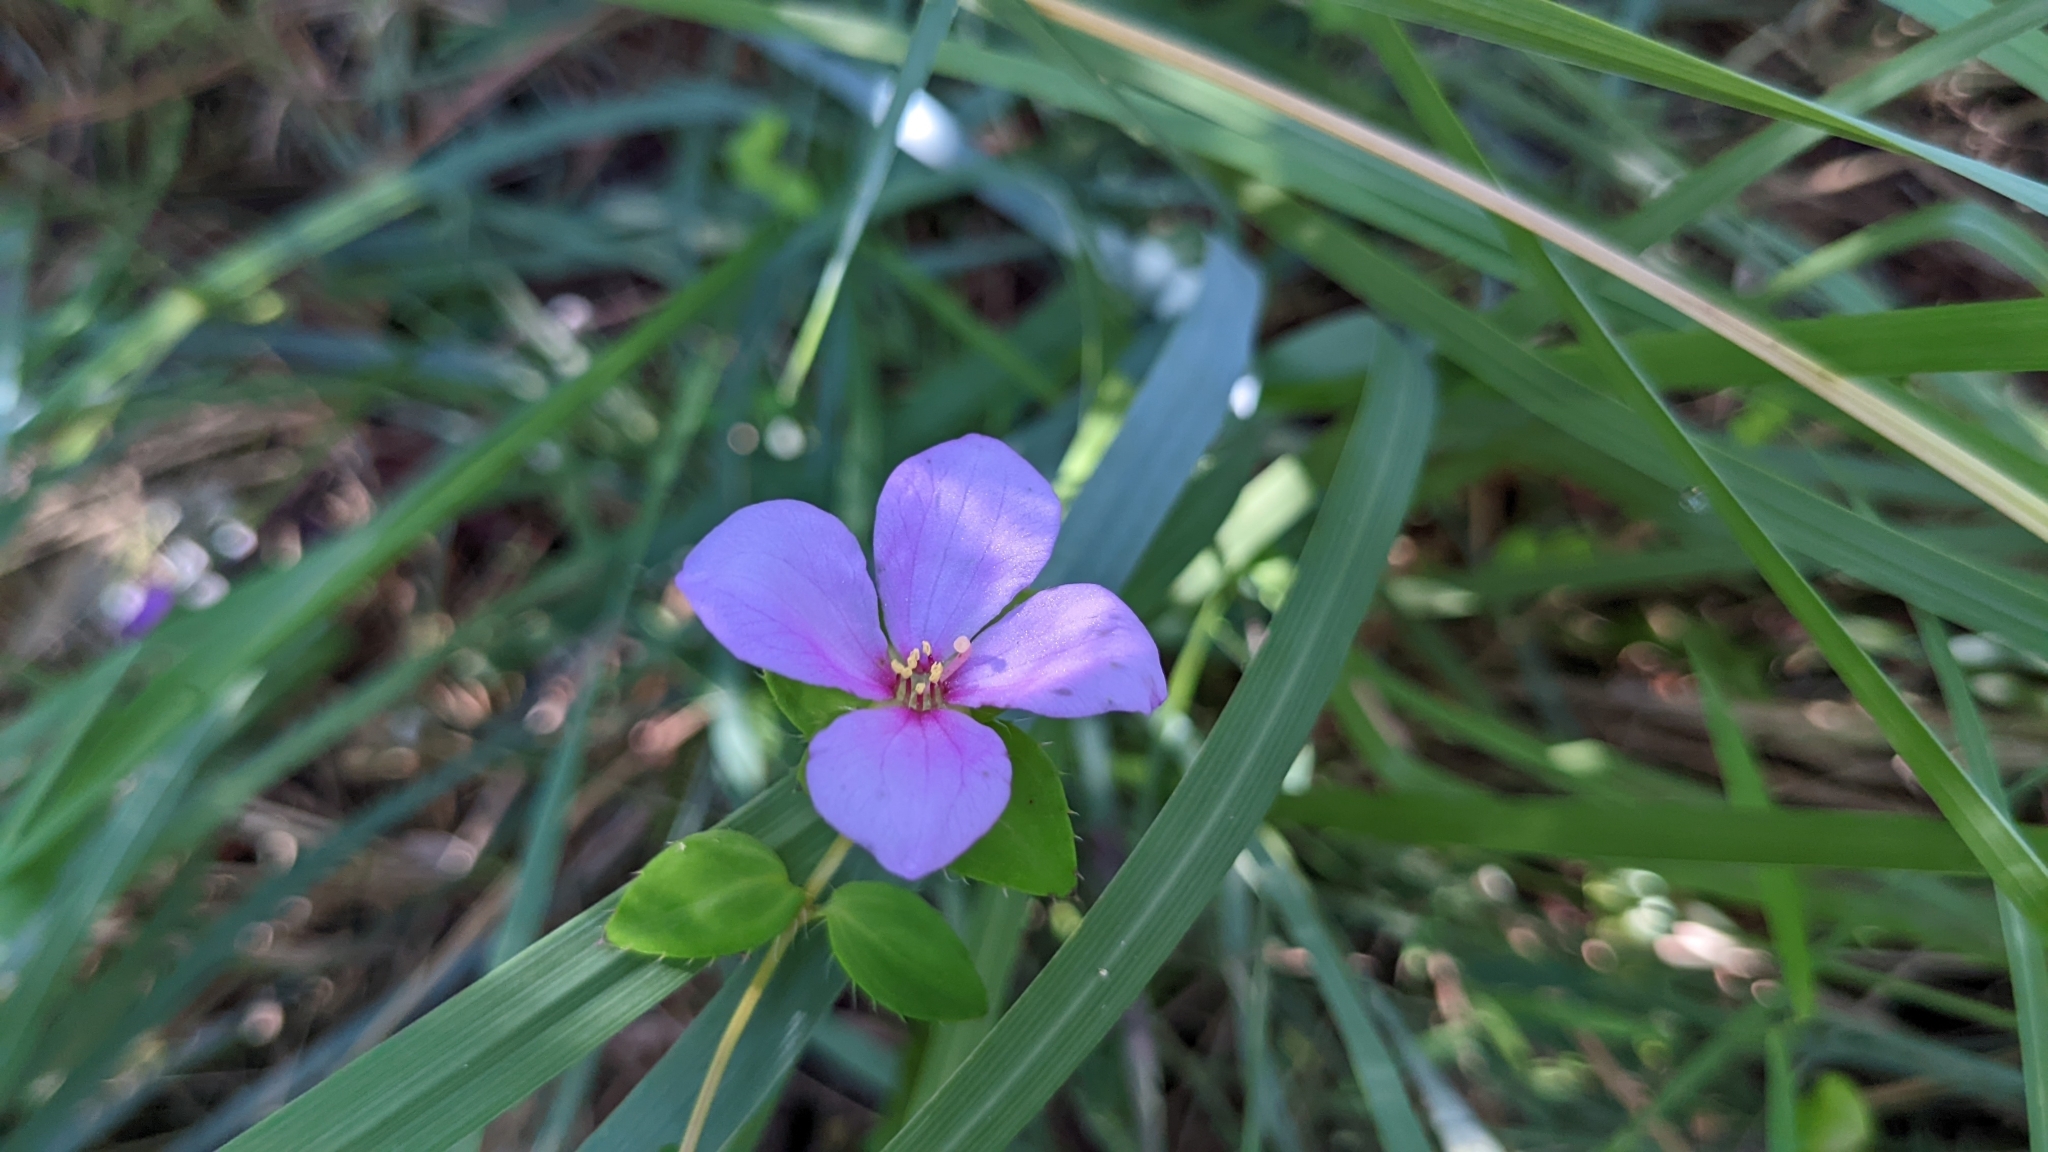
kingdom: Plantae
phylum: Tracheophyta
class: Magnoliopsida
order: Myrtales
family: Melastomataceae
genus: Rhexia
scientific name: Rhexia petiolata
